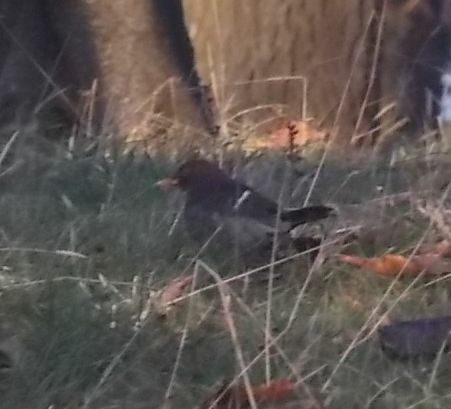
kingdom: Animalia
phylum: Chordata
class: Aves
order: Passeriformes
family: Turdidae
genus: Turdus
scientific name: Turdus merula
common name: Common blackbird
